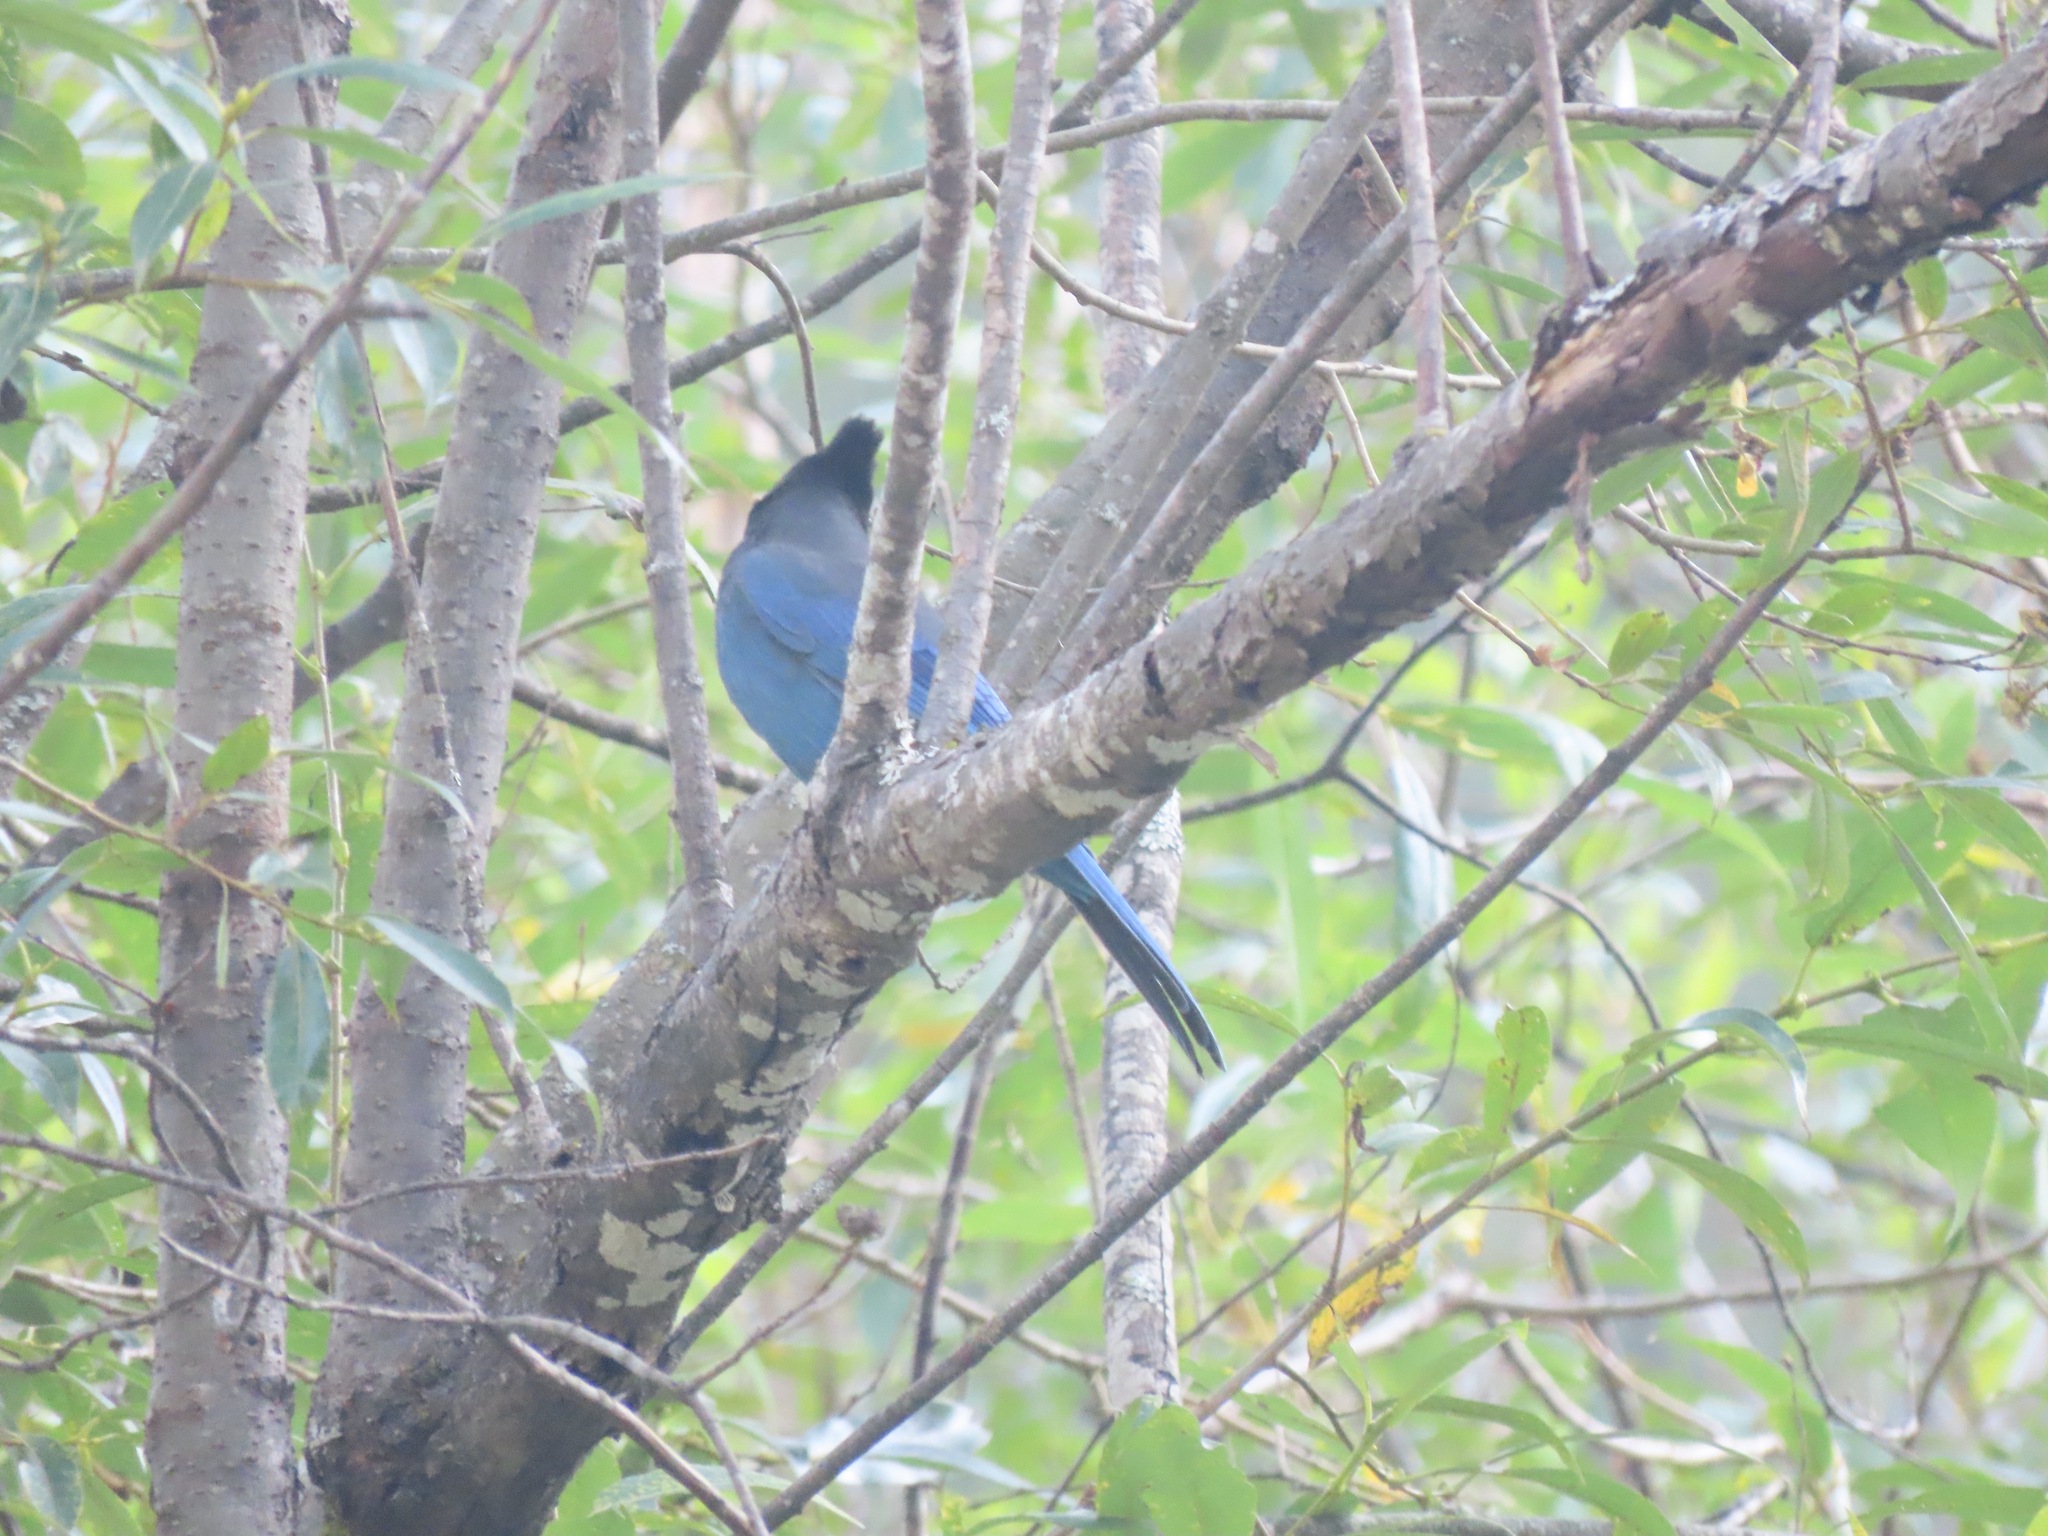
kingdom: Animalia
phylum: Chordata
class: Aves
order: Passeriformes
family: Corvidae
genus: Cyanocitta
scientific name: Cyanocitta stelleri
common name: Steller's jay
